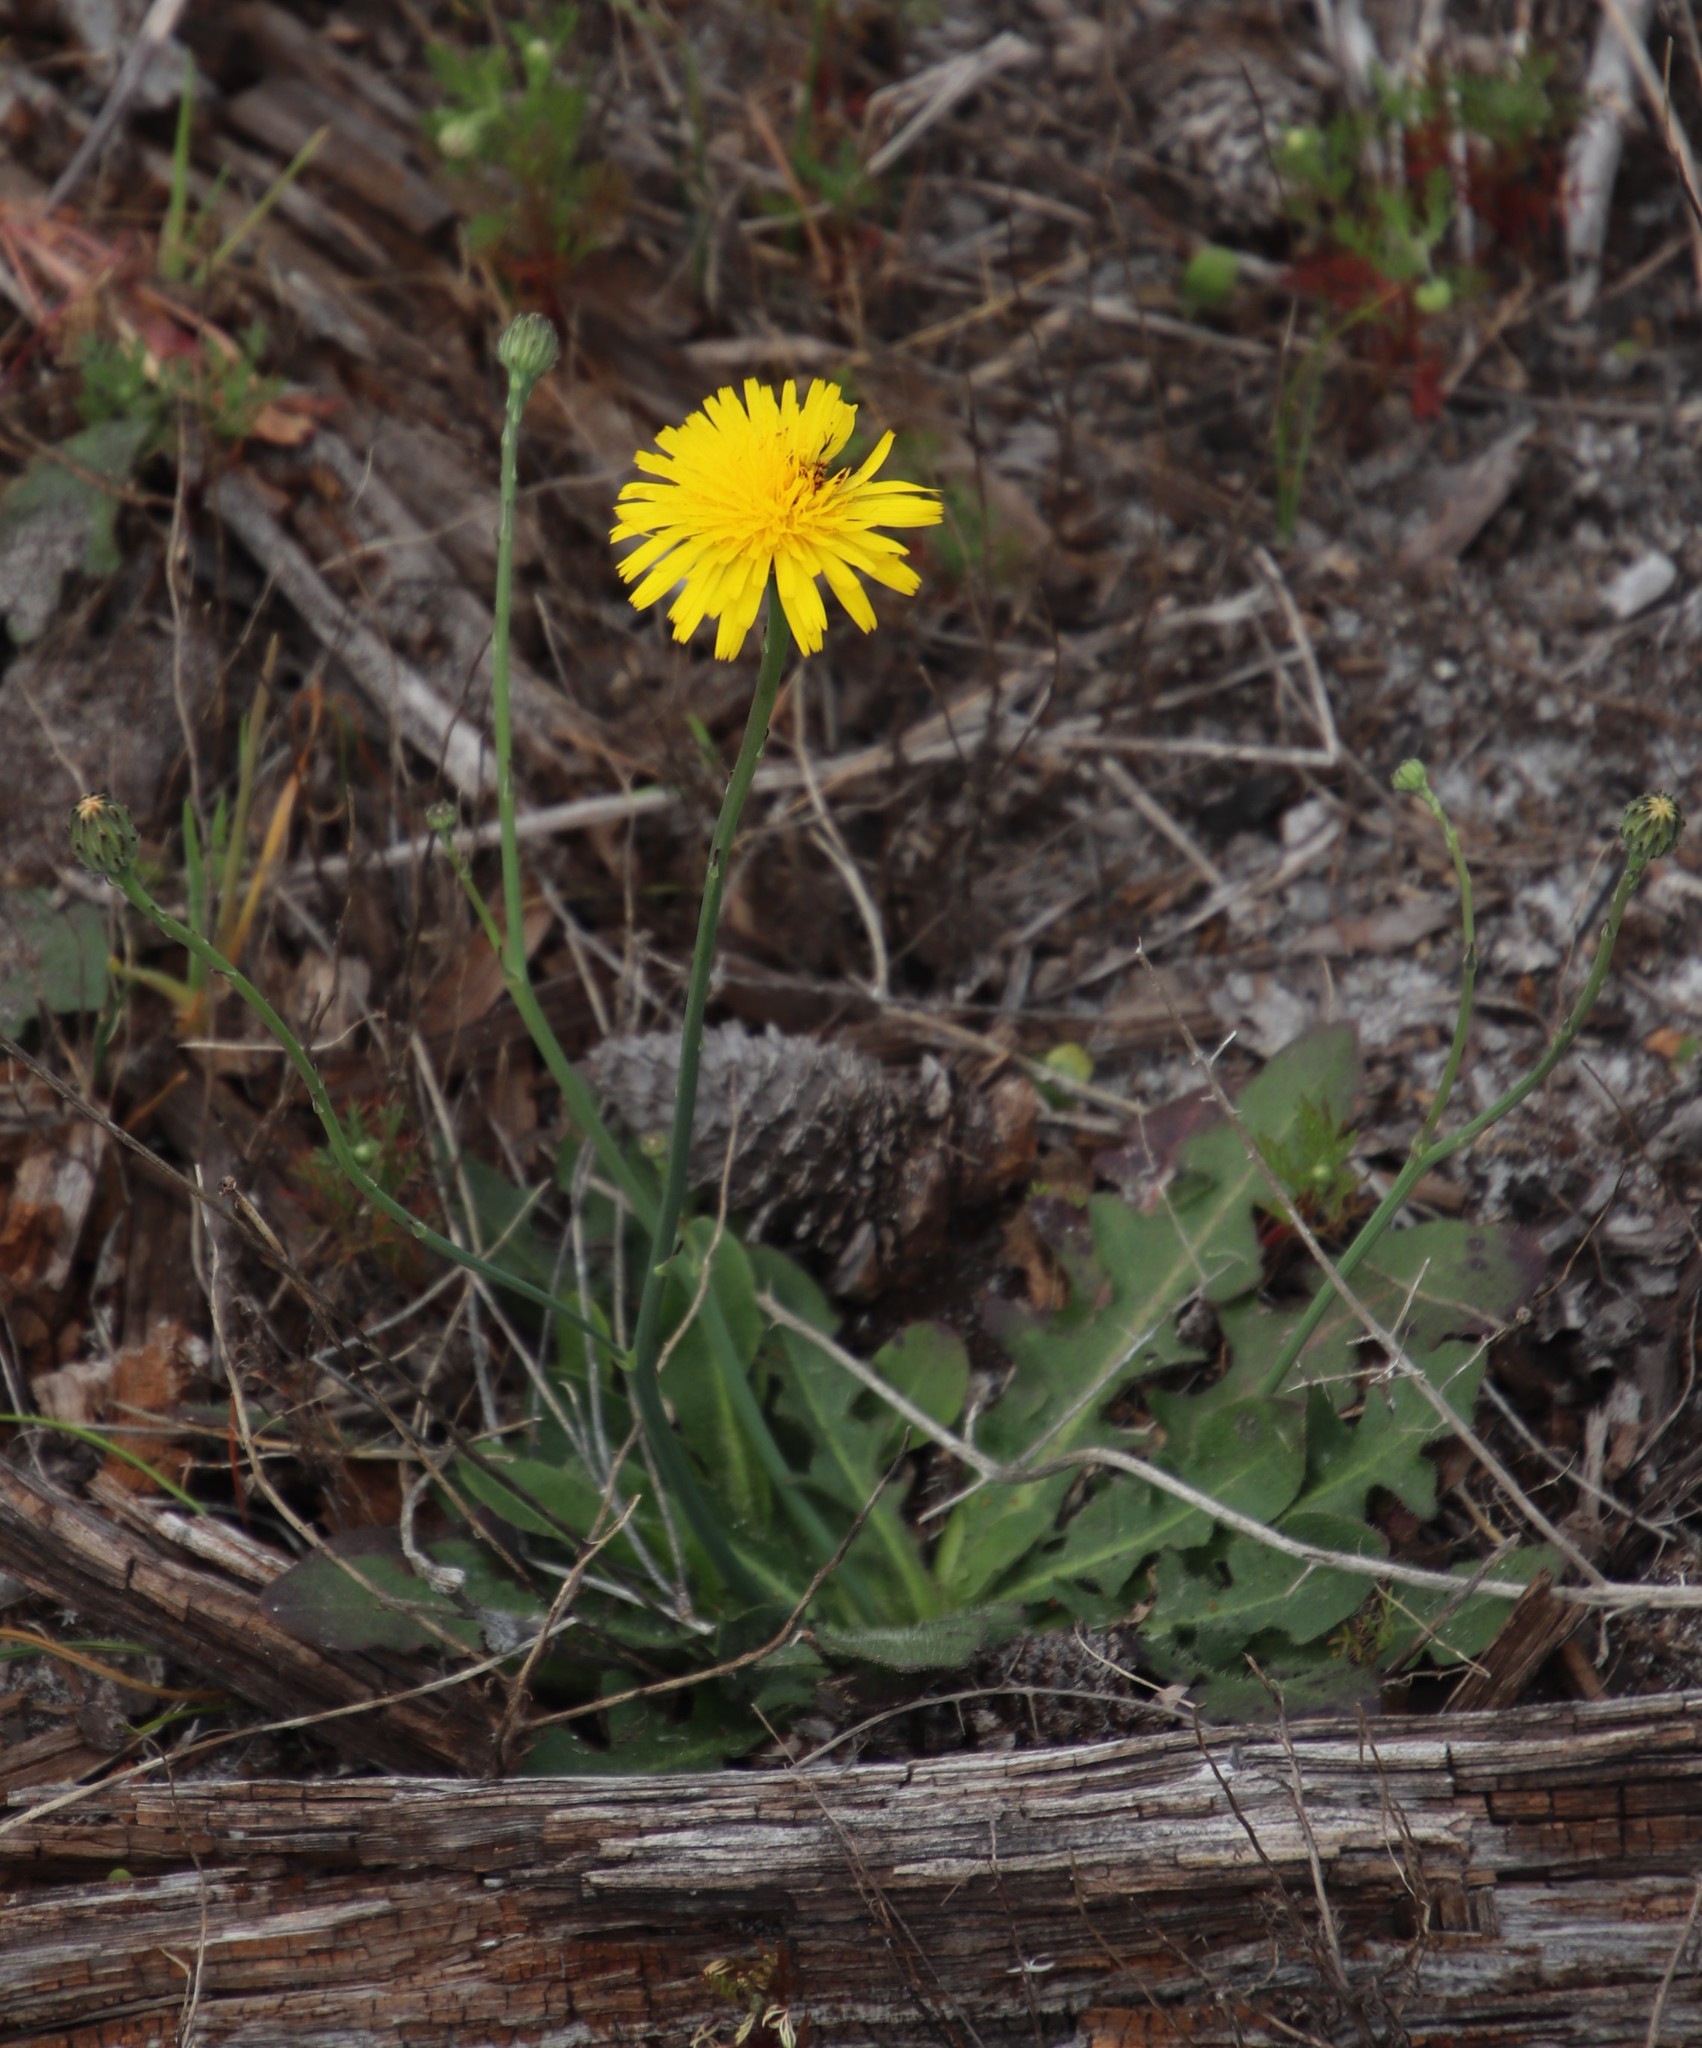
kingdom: Plantae
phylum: Tracheophyta
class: Magnoliopsida
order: Asterales
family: Asteraceae
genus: Hypochaeris
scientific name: Hypochaeris radicata
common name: Flatweed
